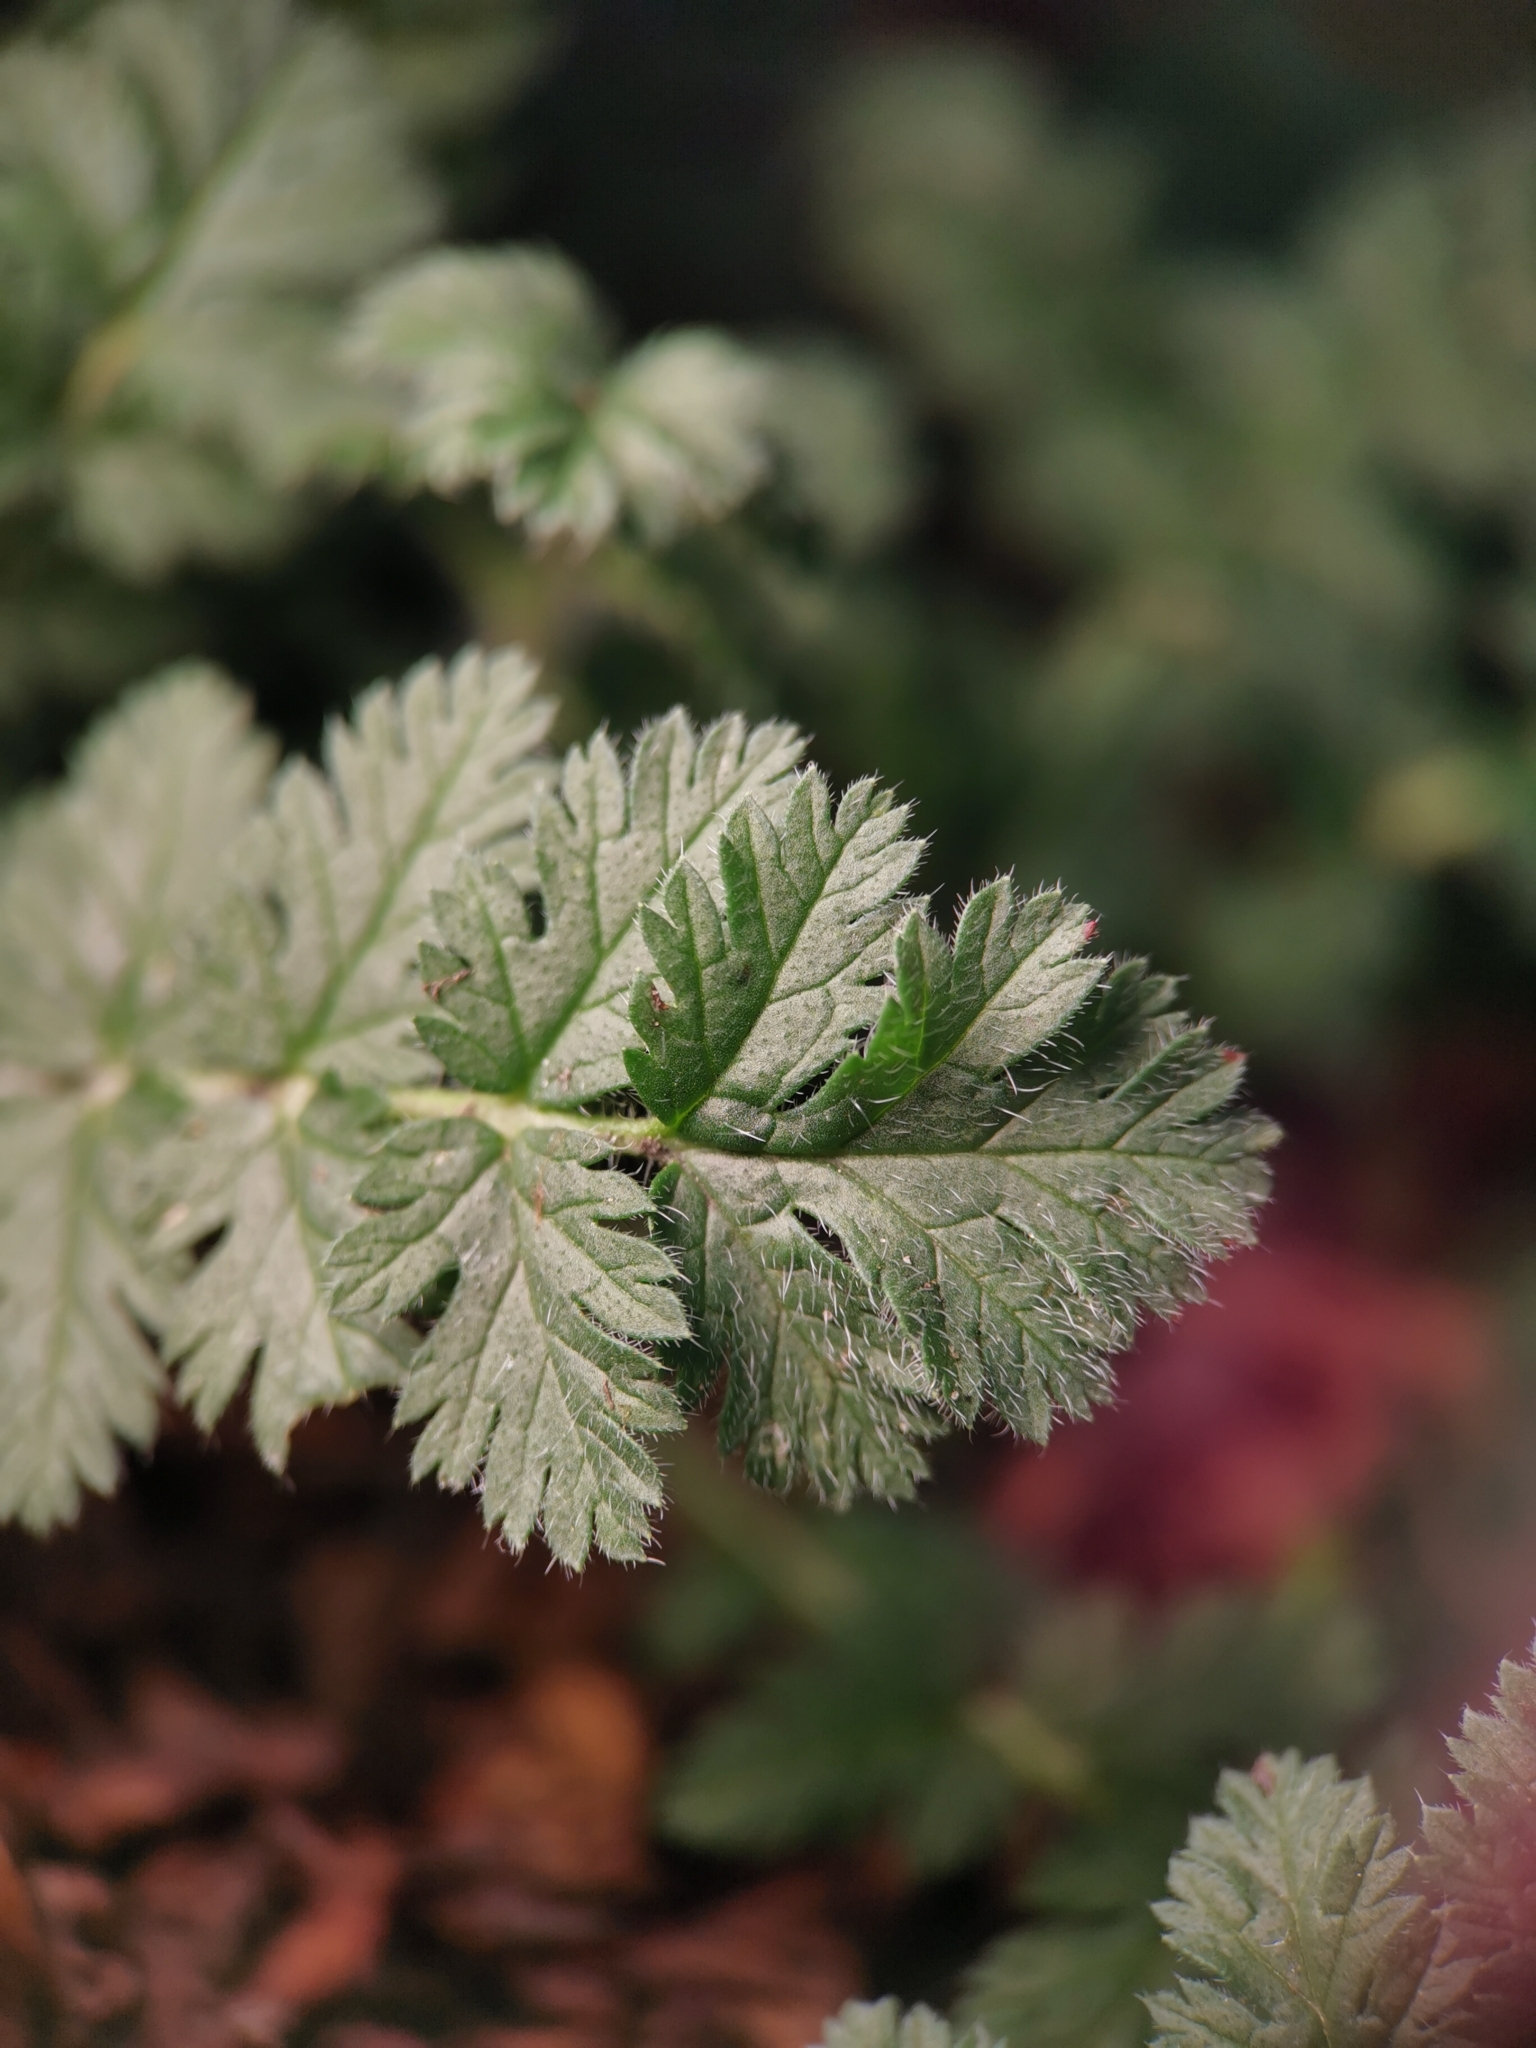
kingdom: Plantae
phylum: Tracheophyta
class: Magnoliopsida
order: Geraniales
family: Geraniaceae
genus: Erodium
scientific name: Erodium cicutarium
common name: Common stork's-bill
